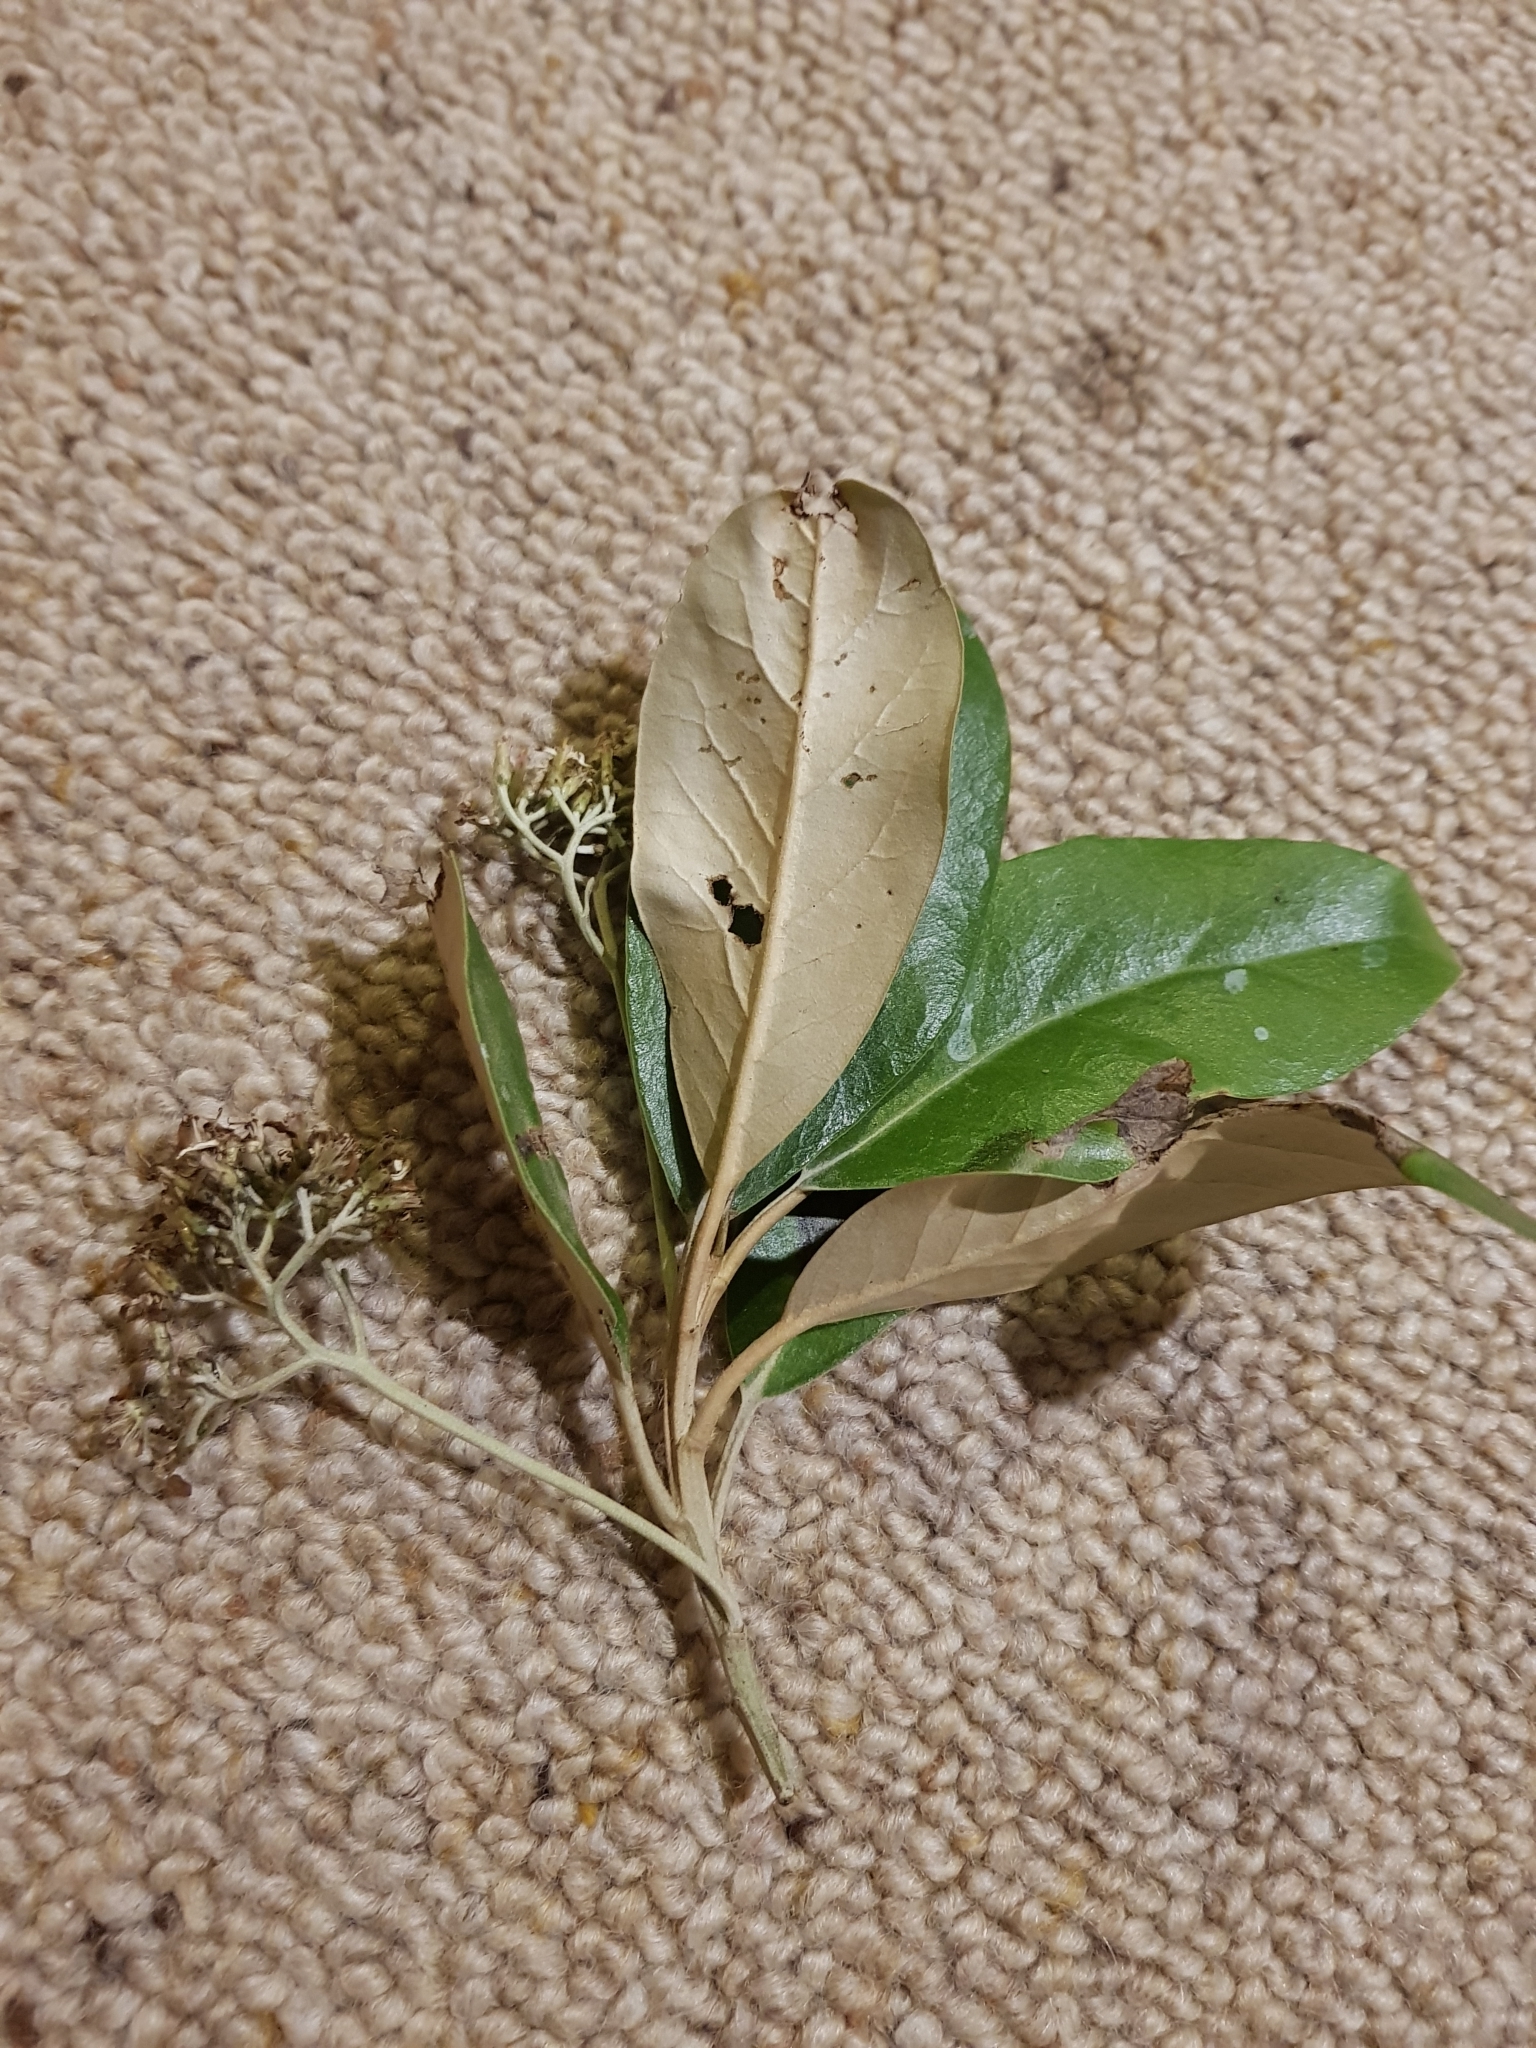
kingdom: Plantae
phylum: Tracheophyta
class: Magnoliopsida
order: Asterales
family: Asteraceae
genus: Olearia
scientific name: Olearia avicenniifolia
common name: Mangrove-leaf daisybush
